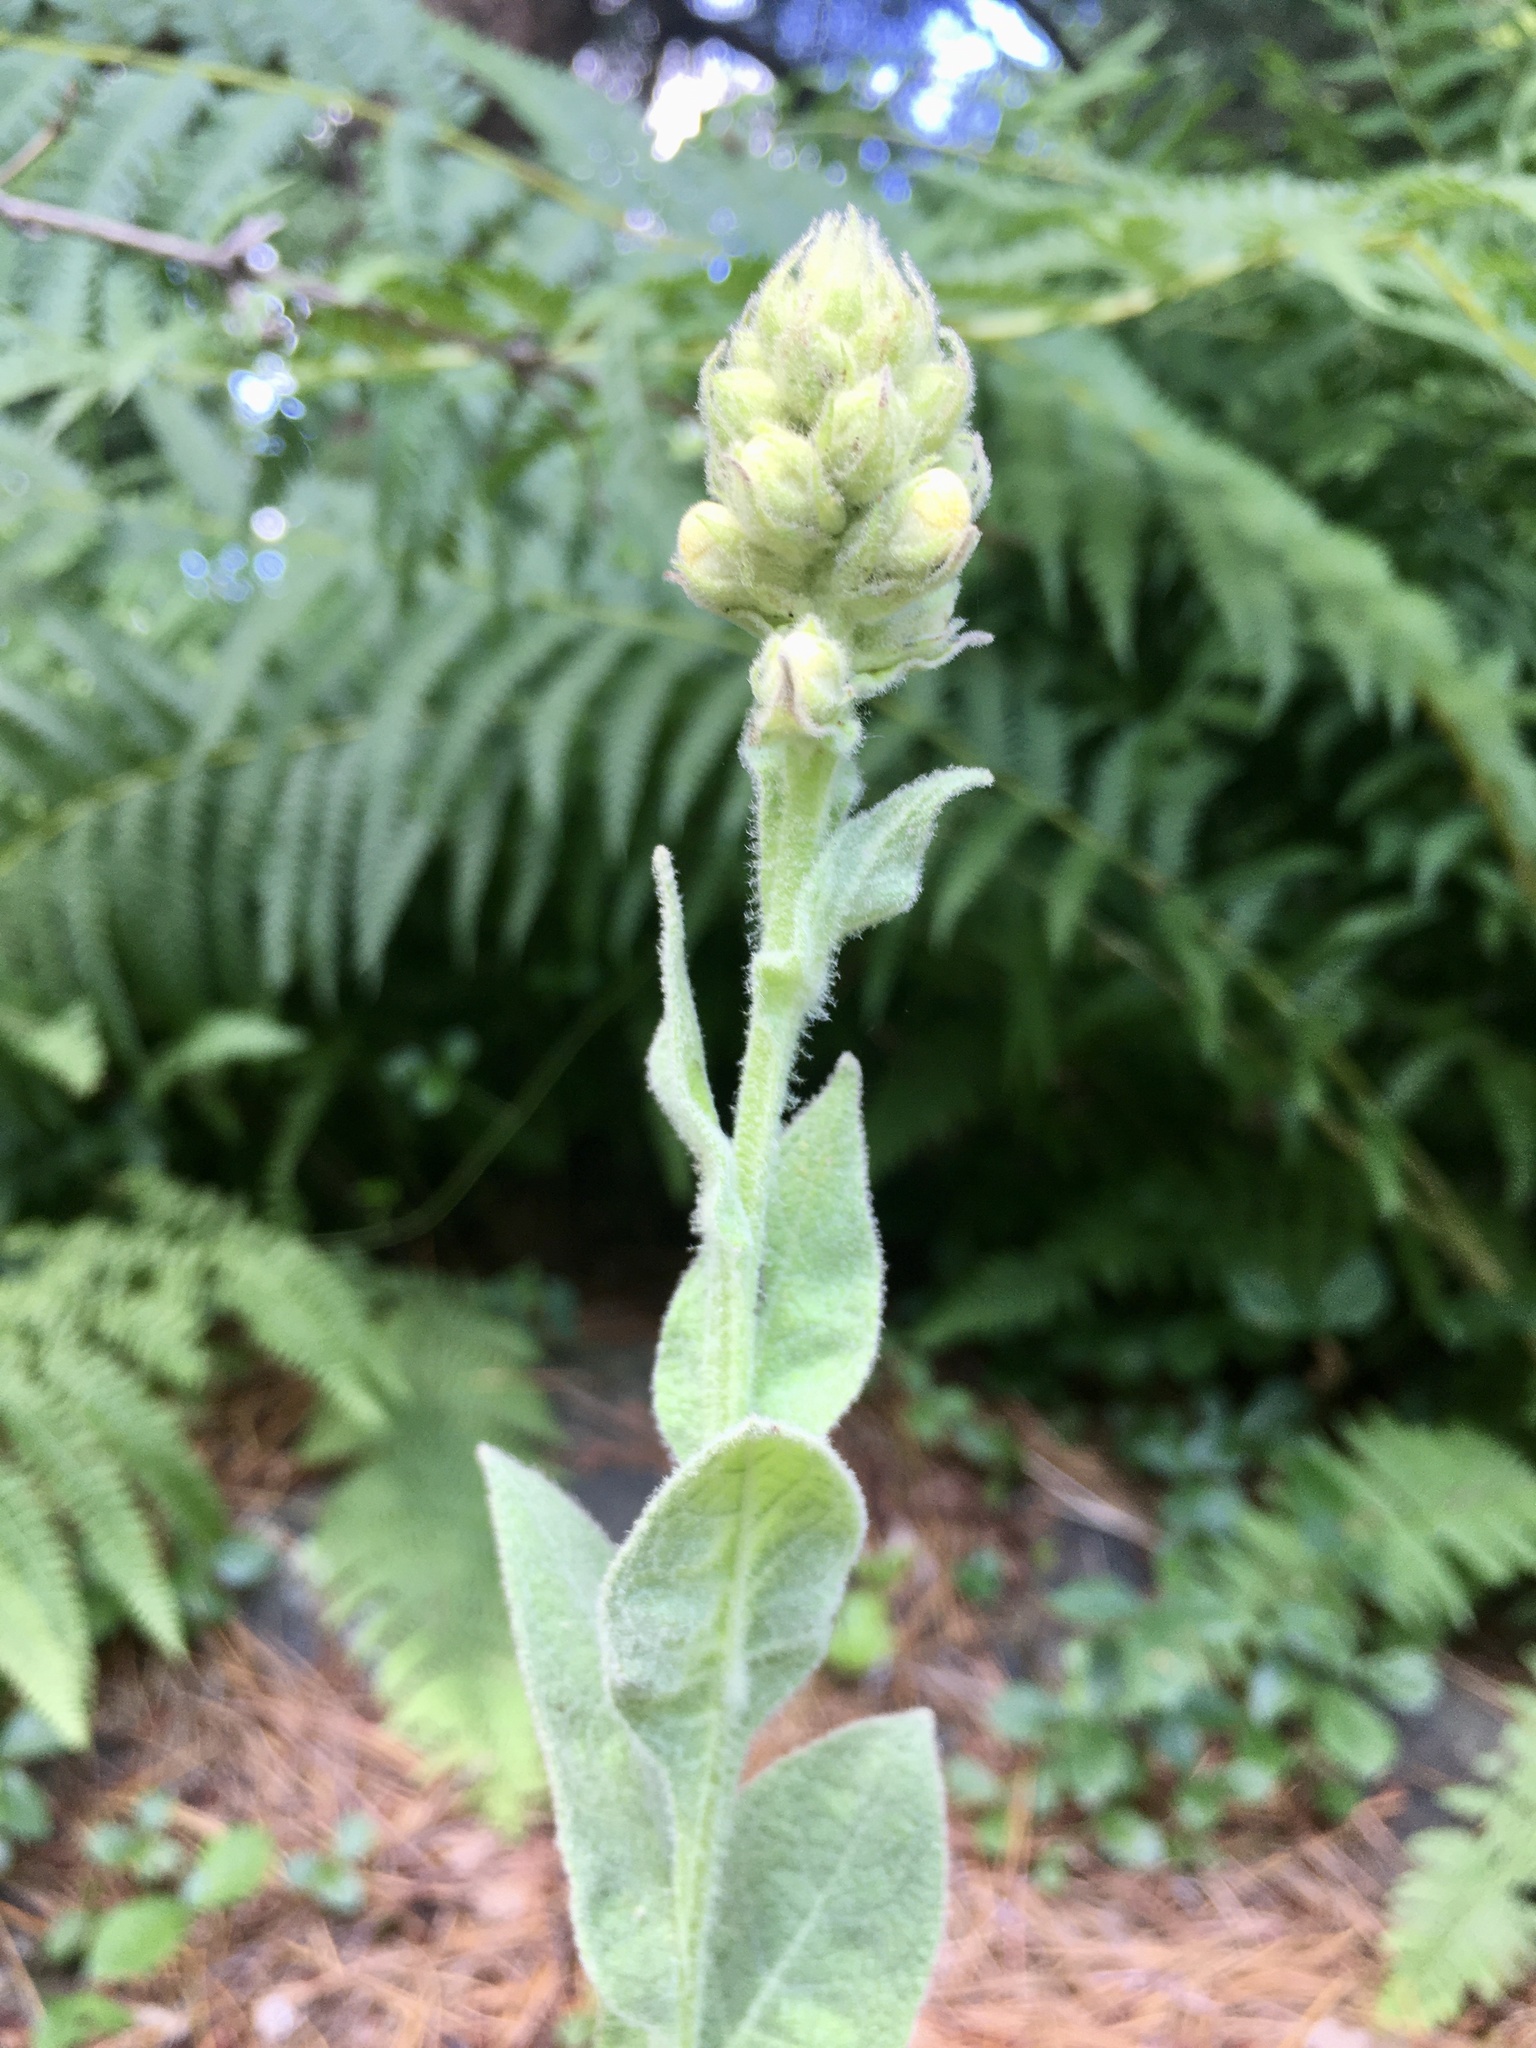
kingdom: Plantae
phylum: Tracheophyta
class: Magnoliopsida
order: Lamiales
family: Scrophulariaceae
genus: Verbascum
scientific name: Verbascum thapsus
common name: Common mullein
